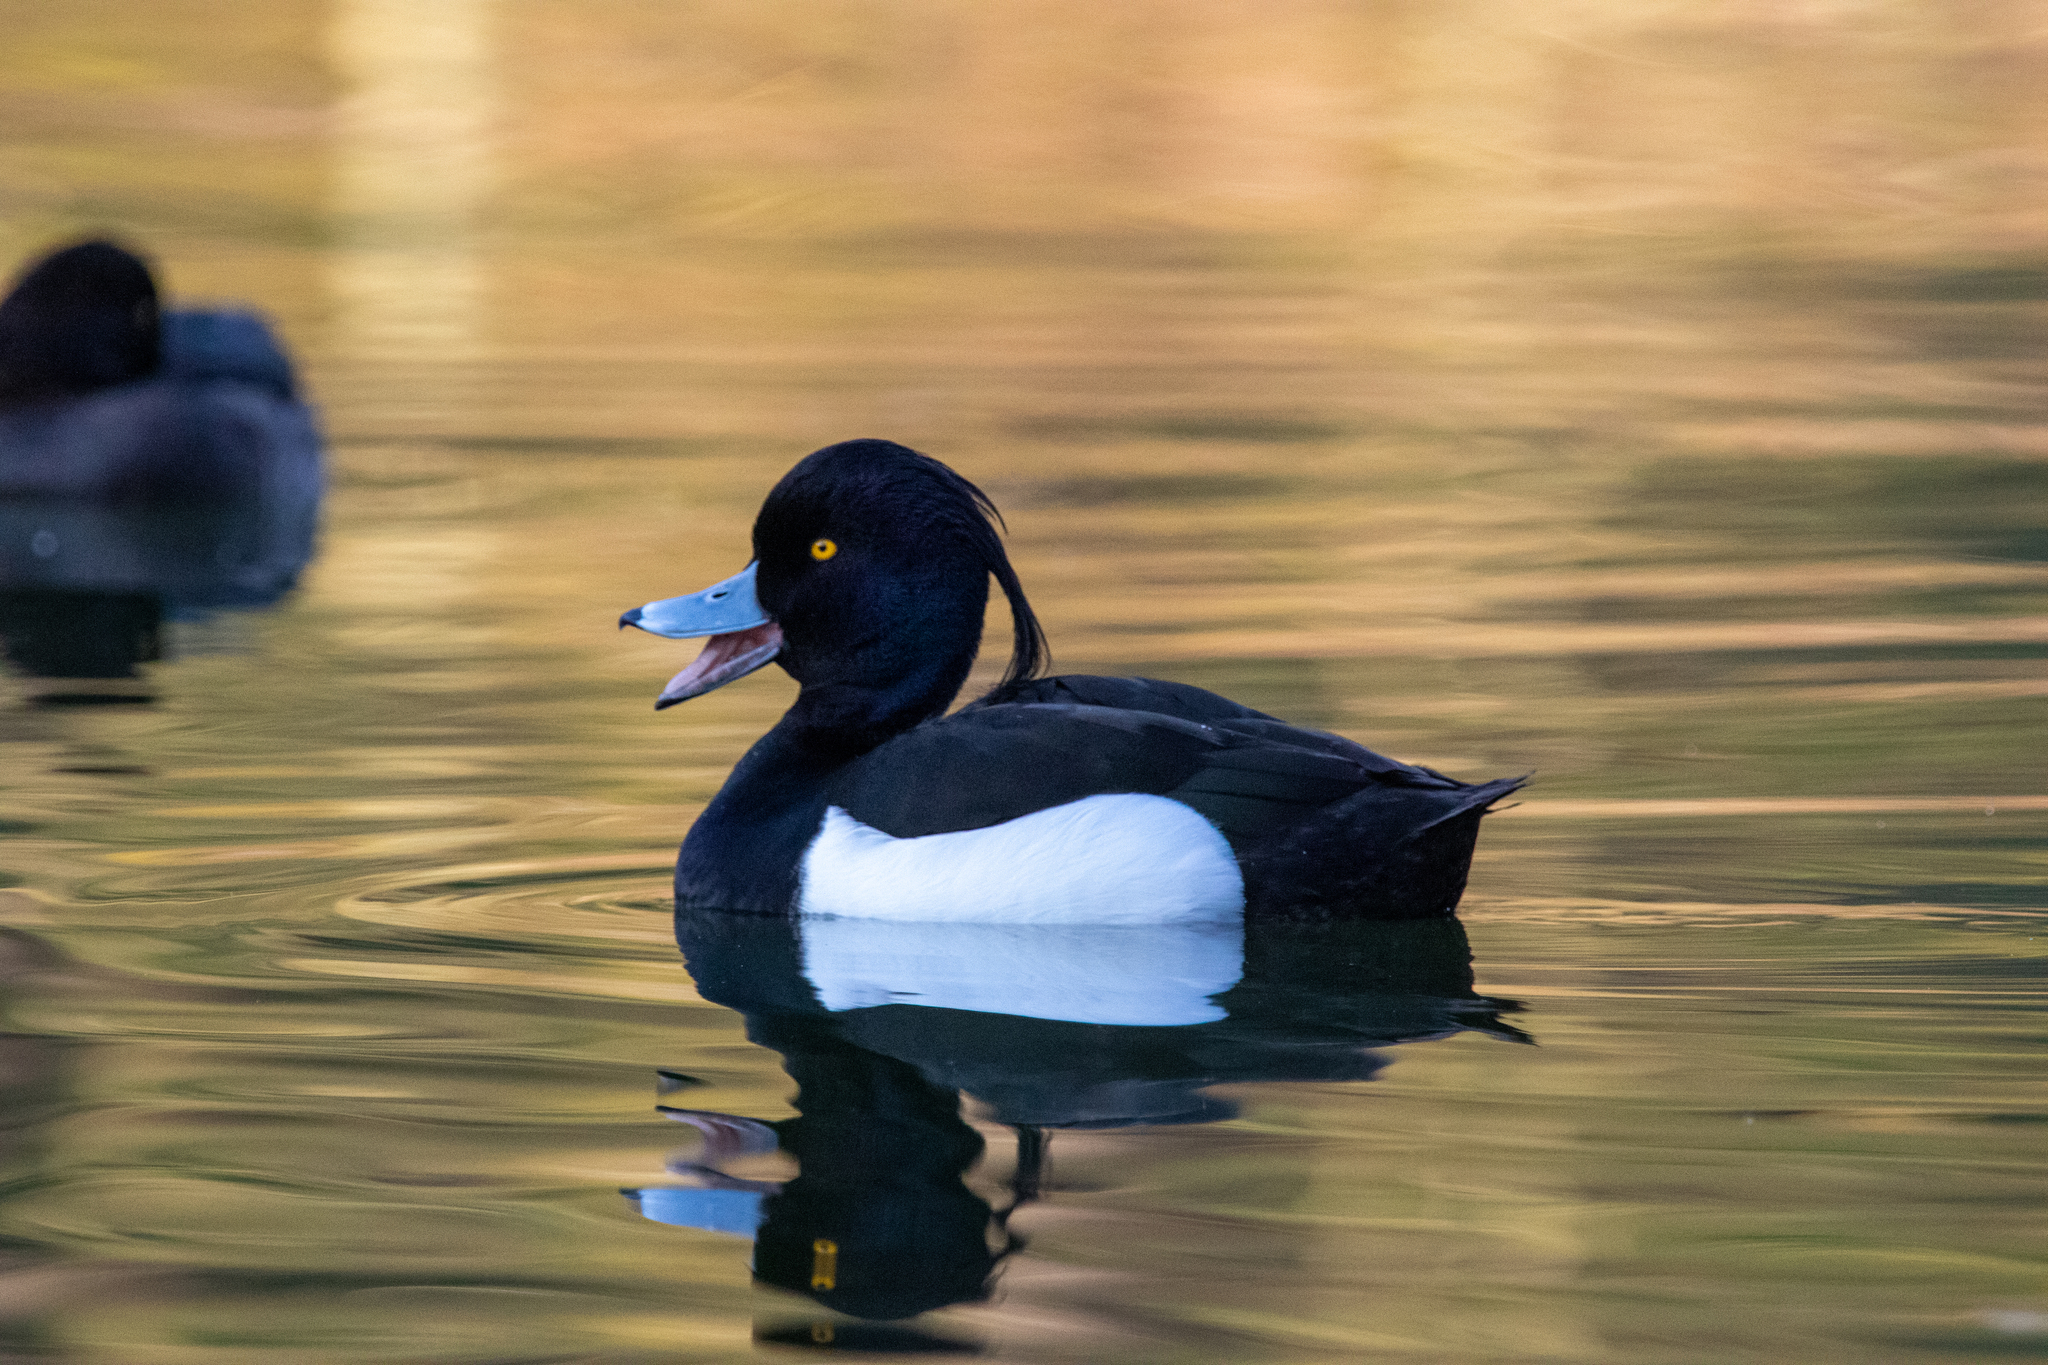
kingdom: Animalia
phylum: Chordata
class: Aves
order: Anseriformes
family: Anatidae
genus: Aythya
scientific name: Aythya fuligula
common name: Tufted duck
